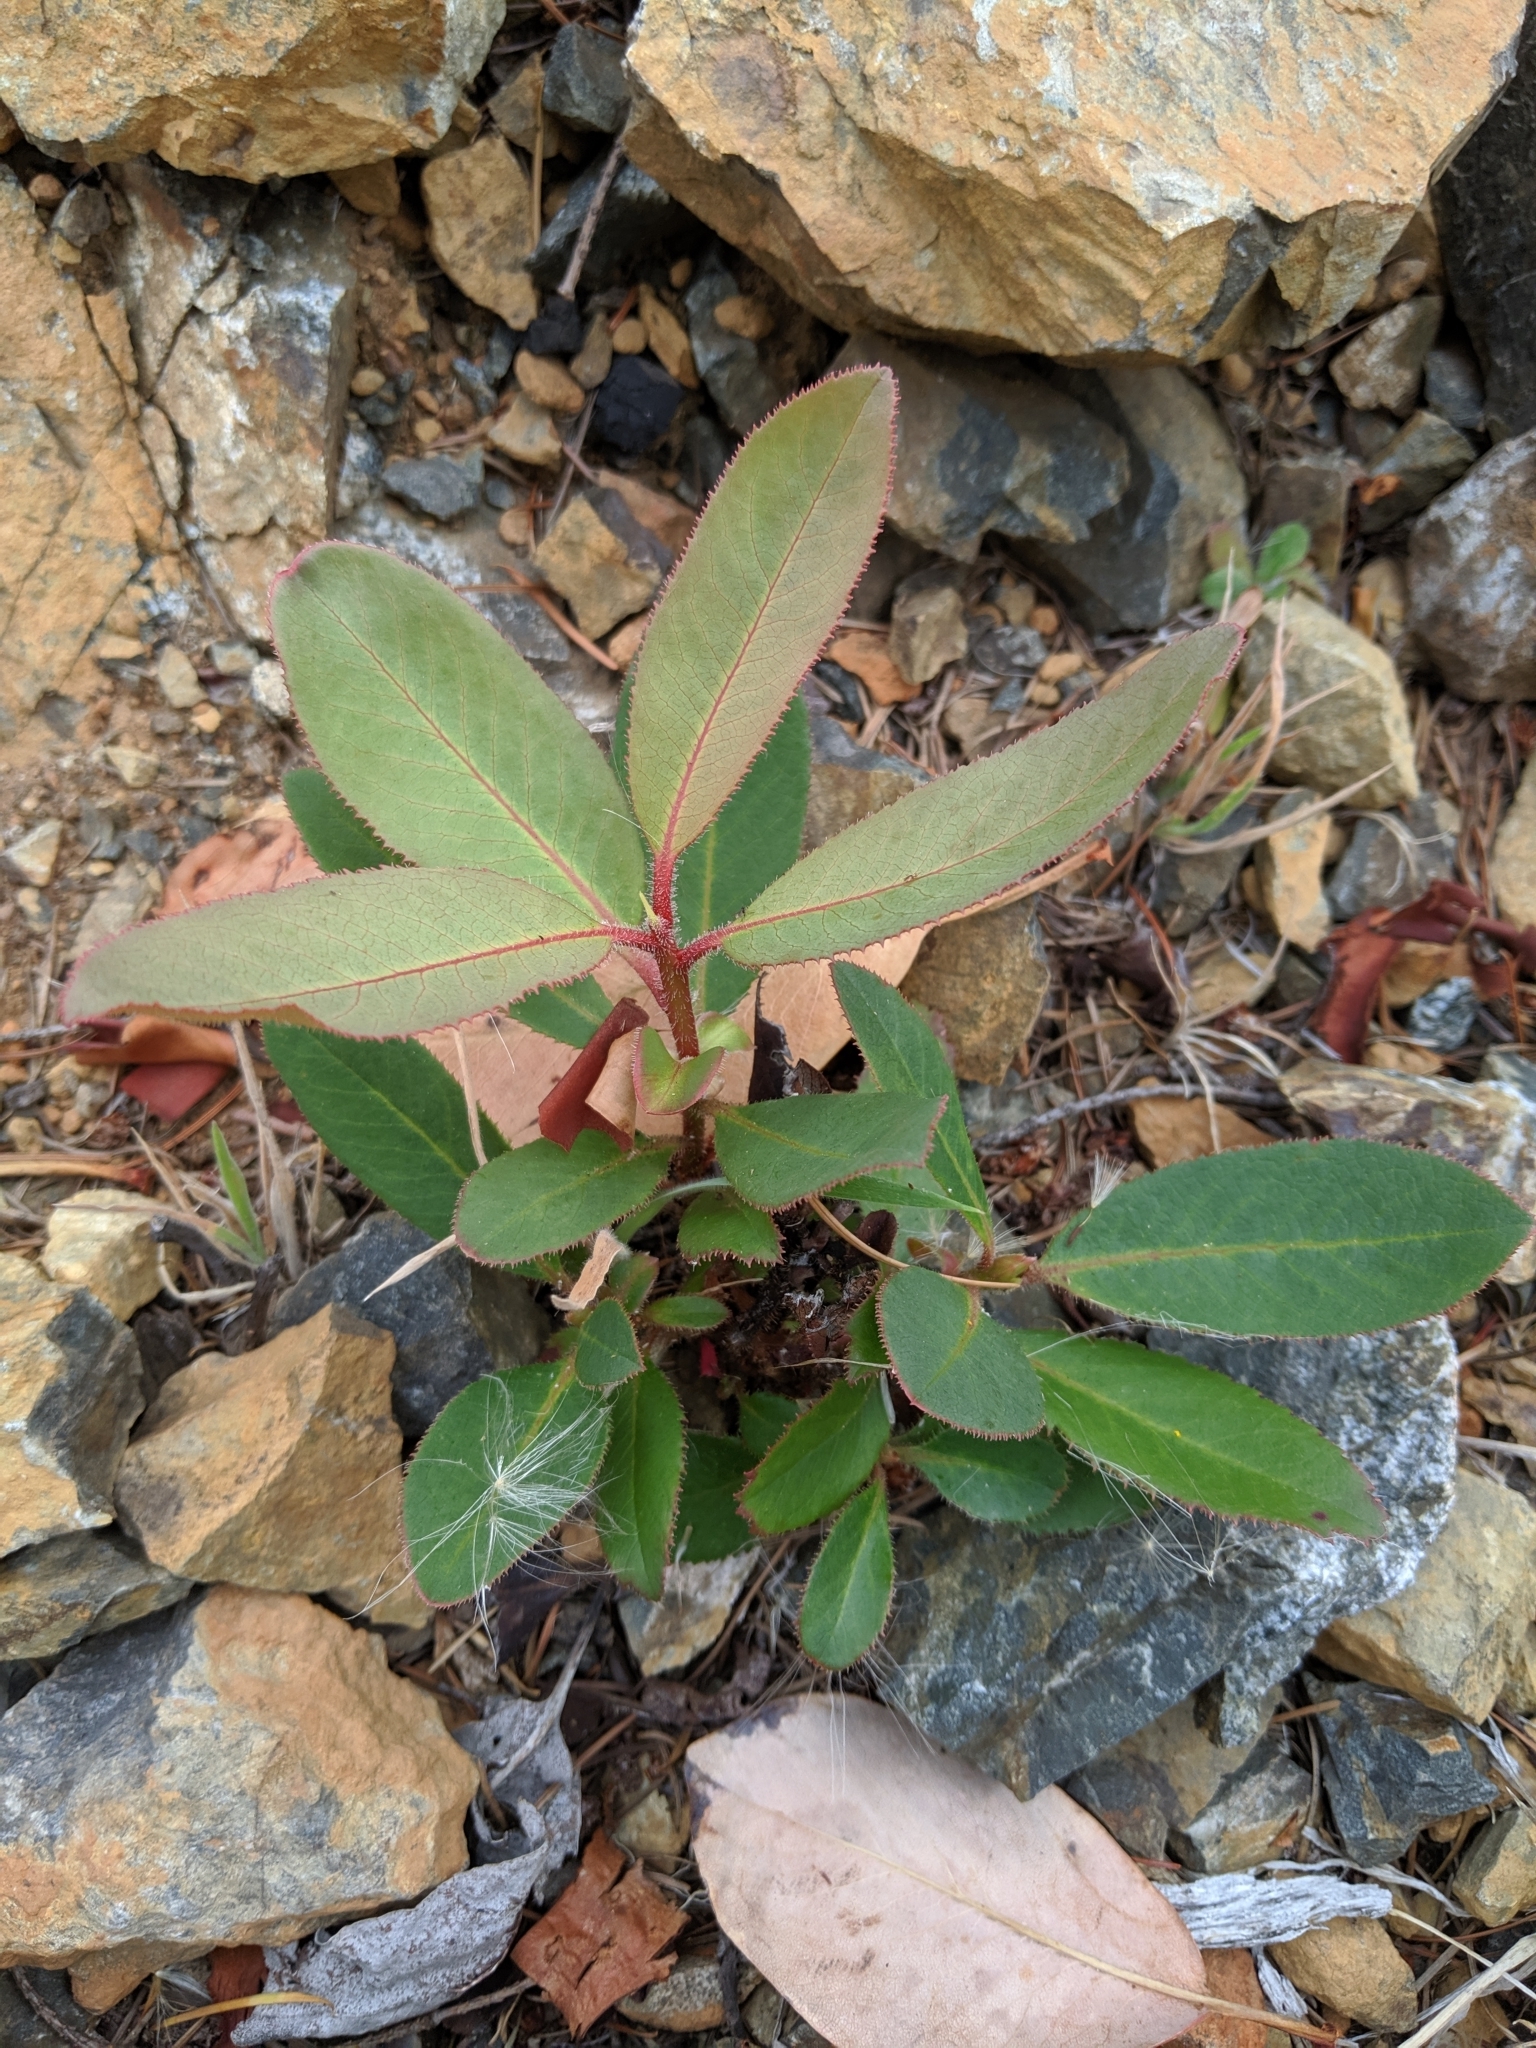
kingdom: Plantae
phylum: Tracheophyta
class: Magnoliopsida
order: Ericales
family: Ericaceae
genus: Arbutus
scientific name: Arbutus menziesii
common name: Pacific madrone
